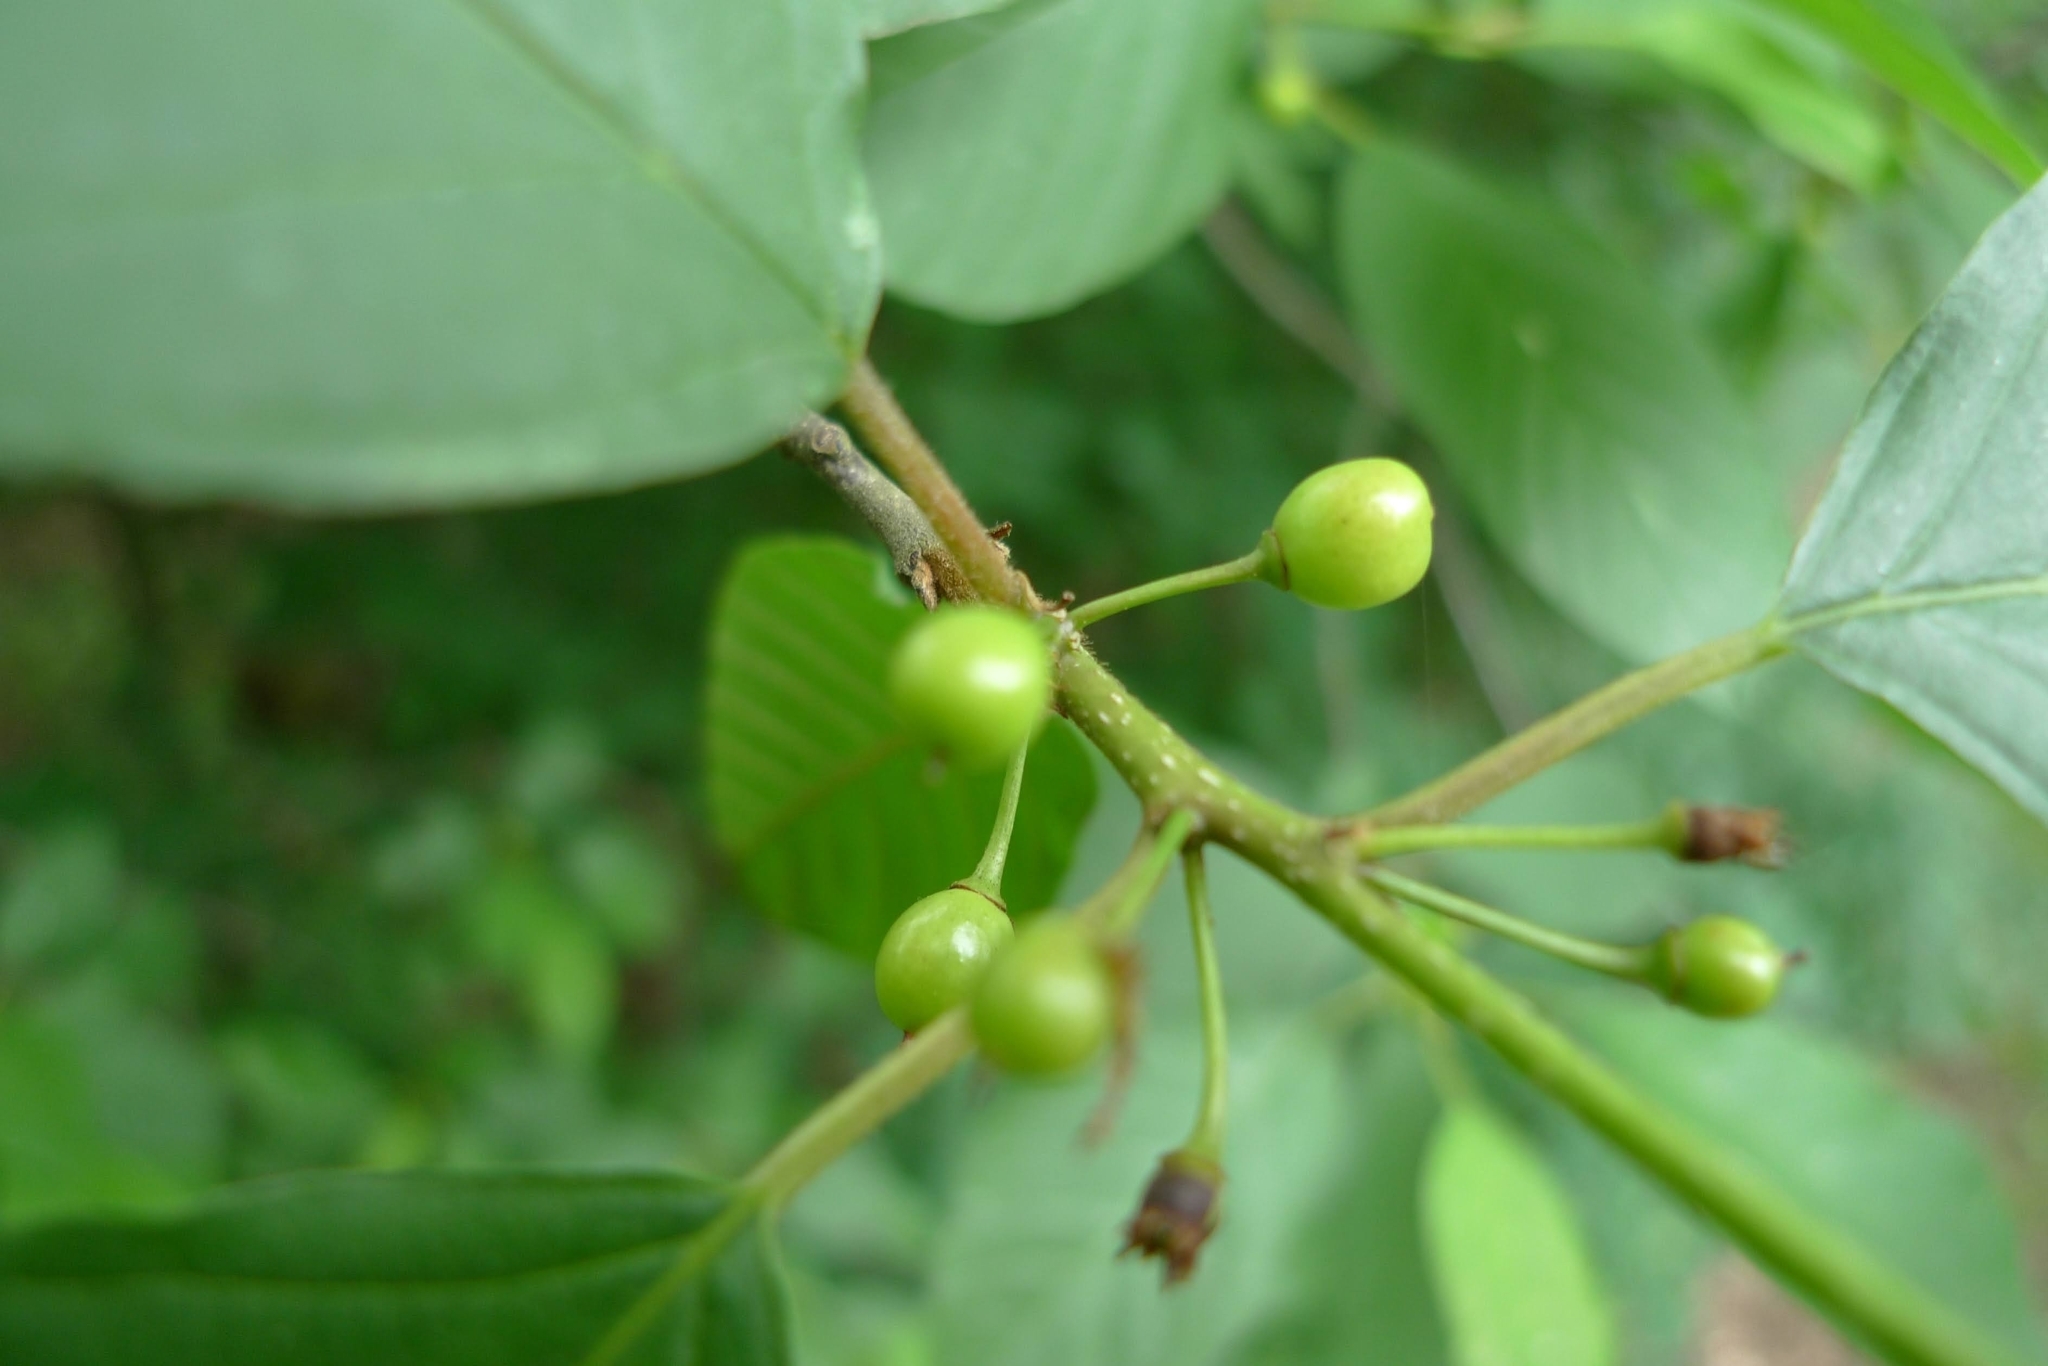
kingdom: Plantae
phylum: Tracheophyta
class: Magnoliopsida
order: Rosales
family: Rhamnaceae
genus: Frangula
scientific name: Frangula alnus
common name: Alder buckthorn
